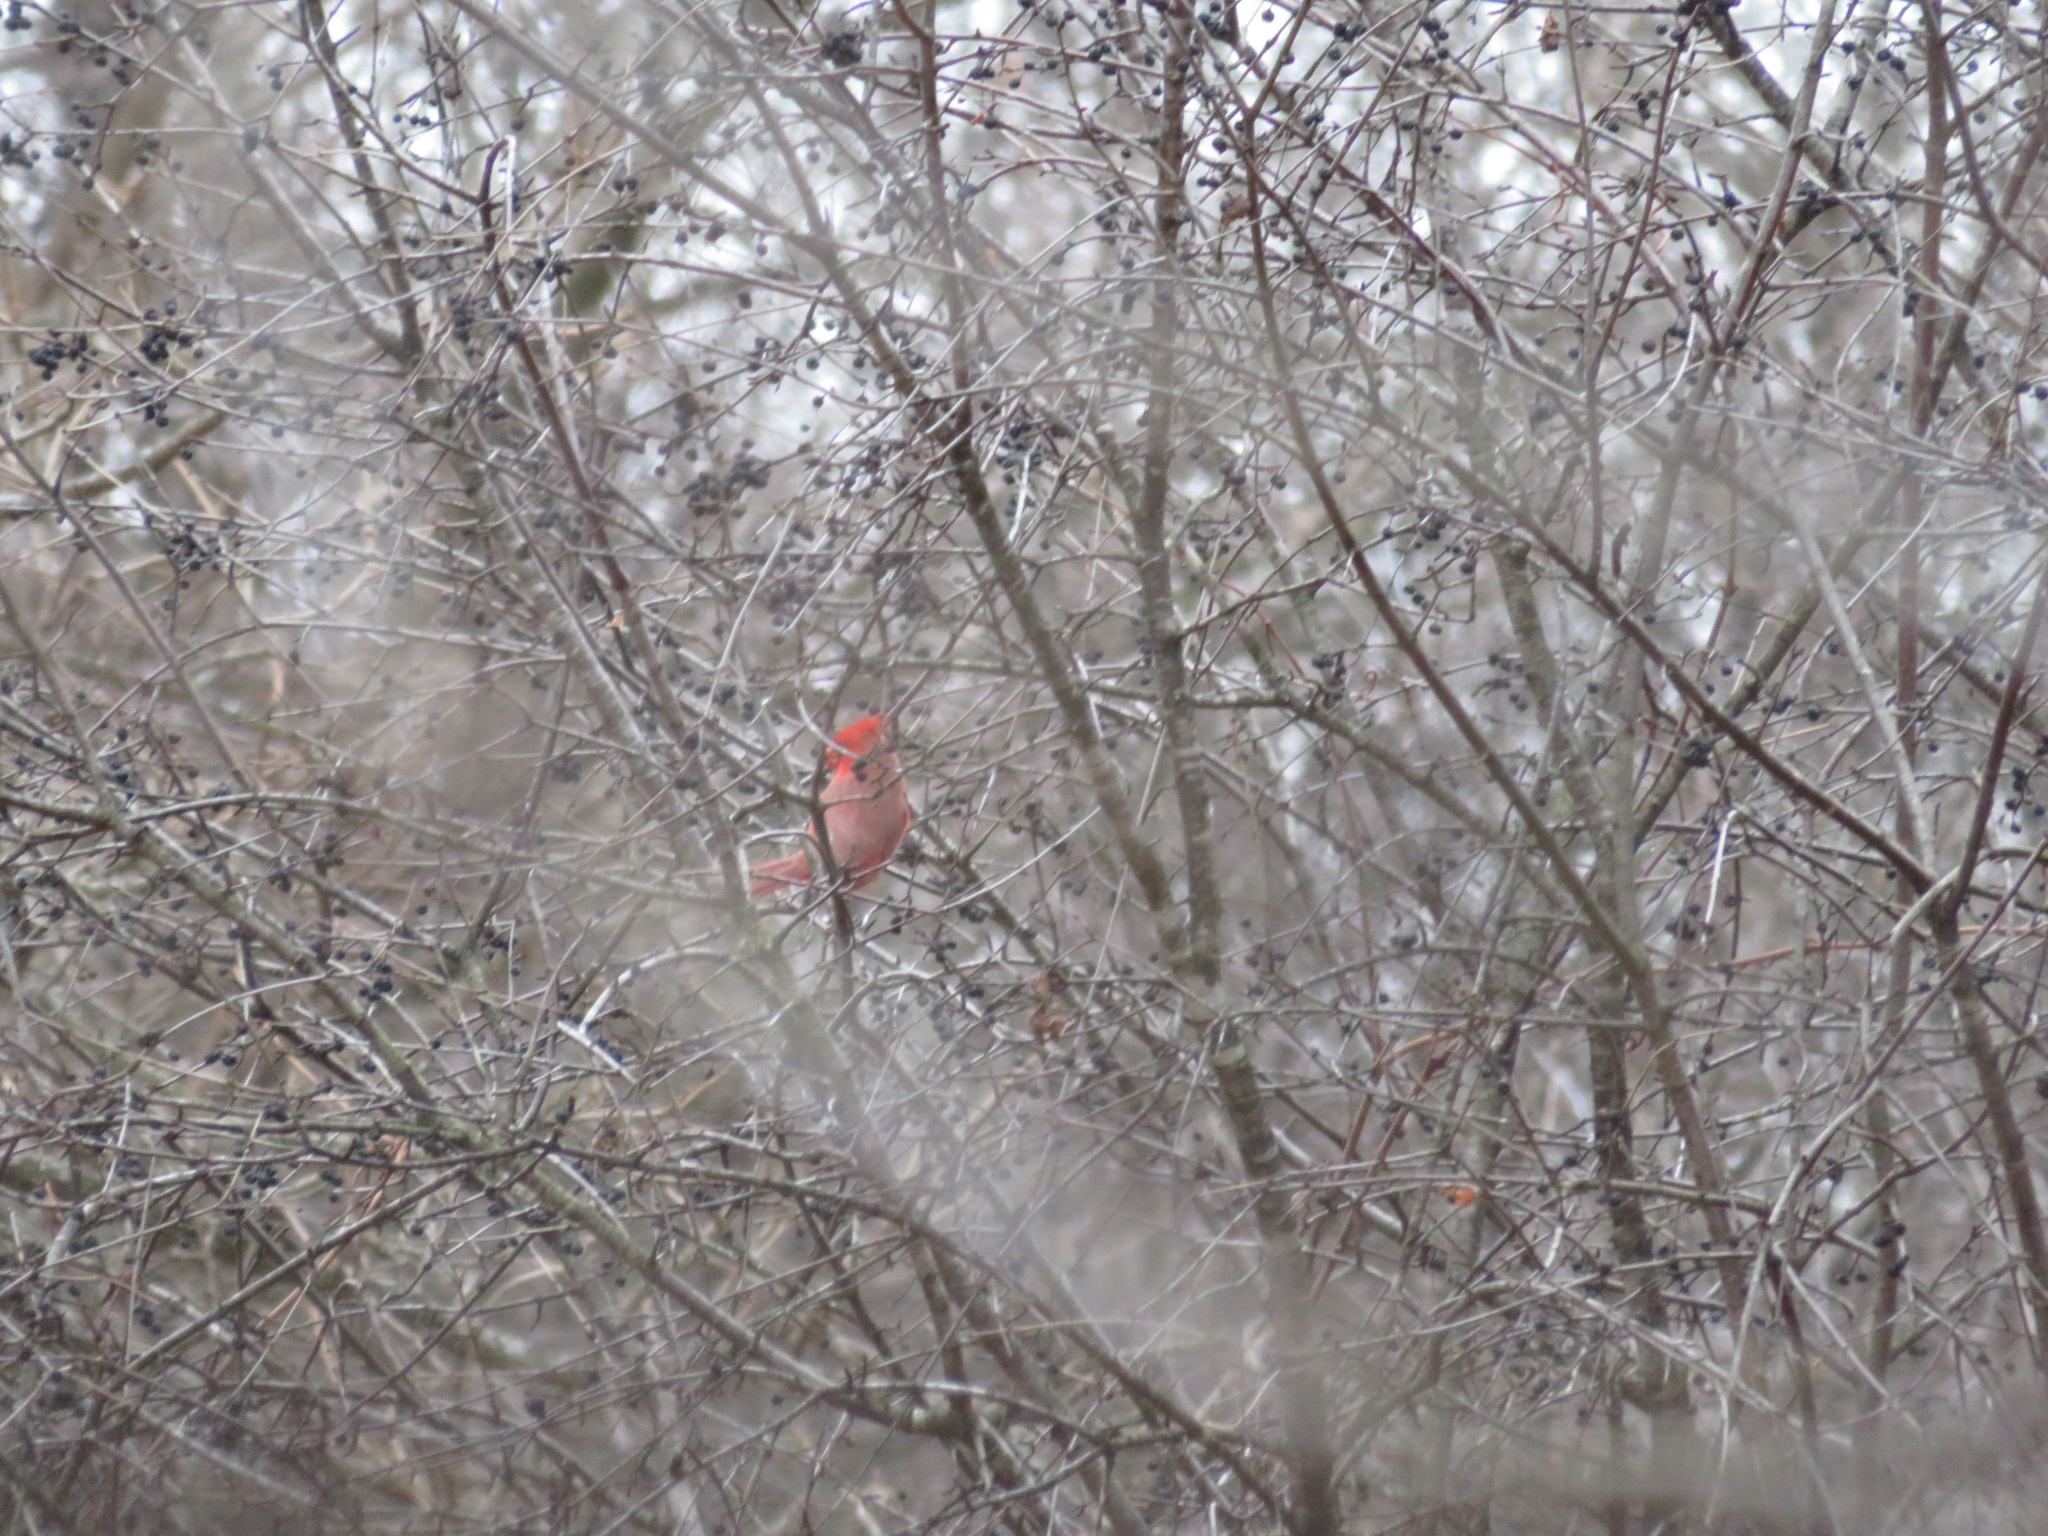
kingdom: Animalia
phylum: Chordata
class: Aves
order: Passeriformes
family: Cardinalidae
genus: Cardinalis
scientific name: Cardinalis cardinalis
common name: Northern cardinal
